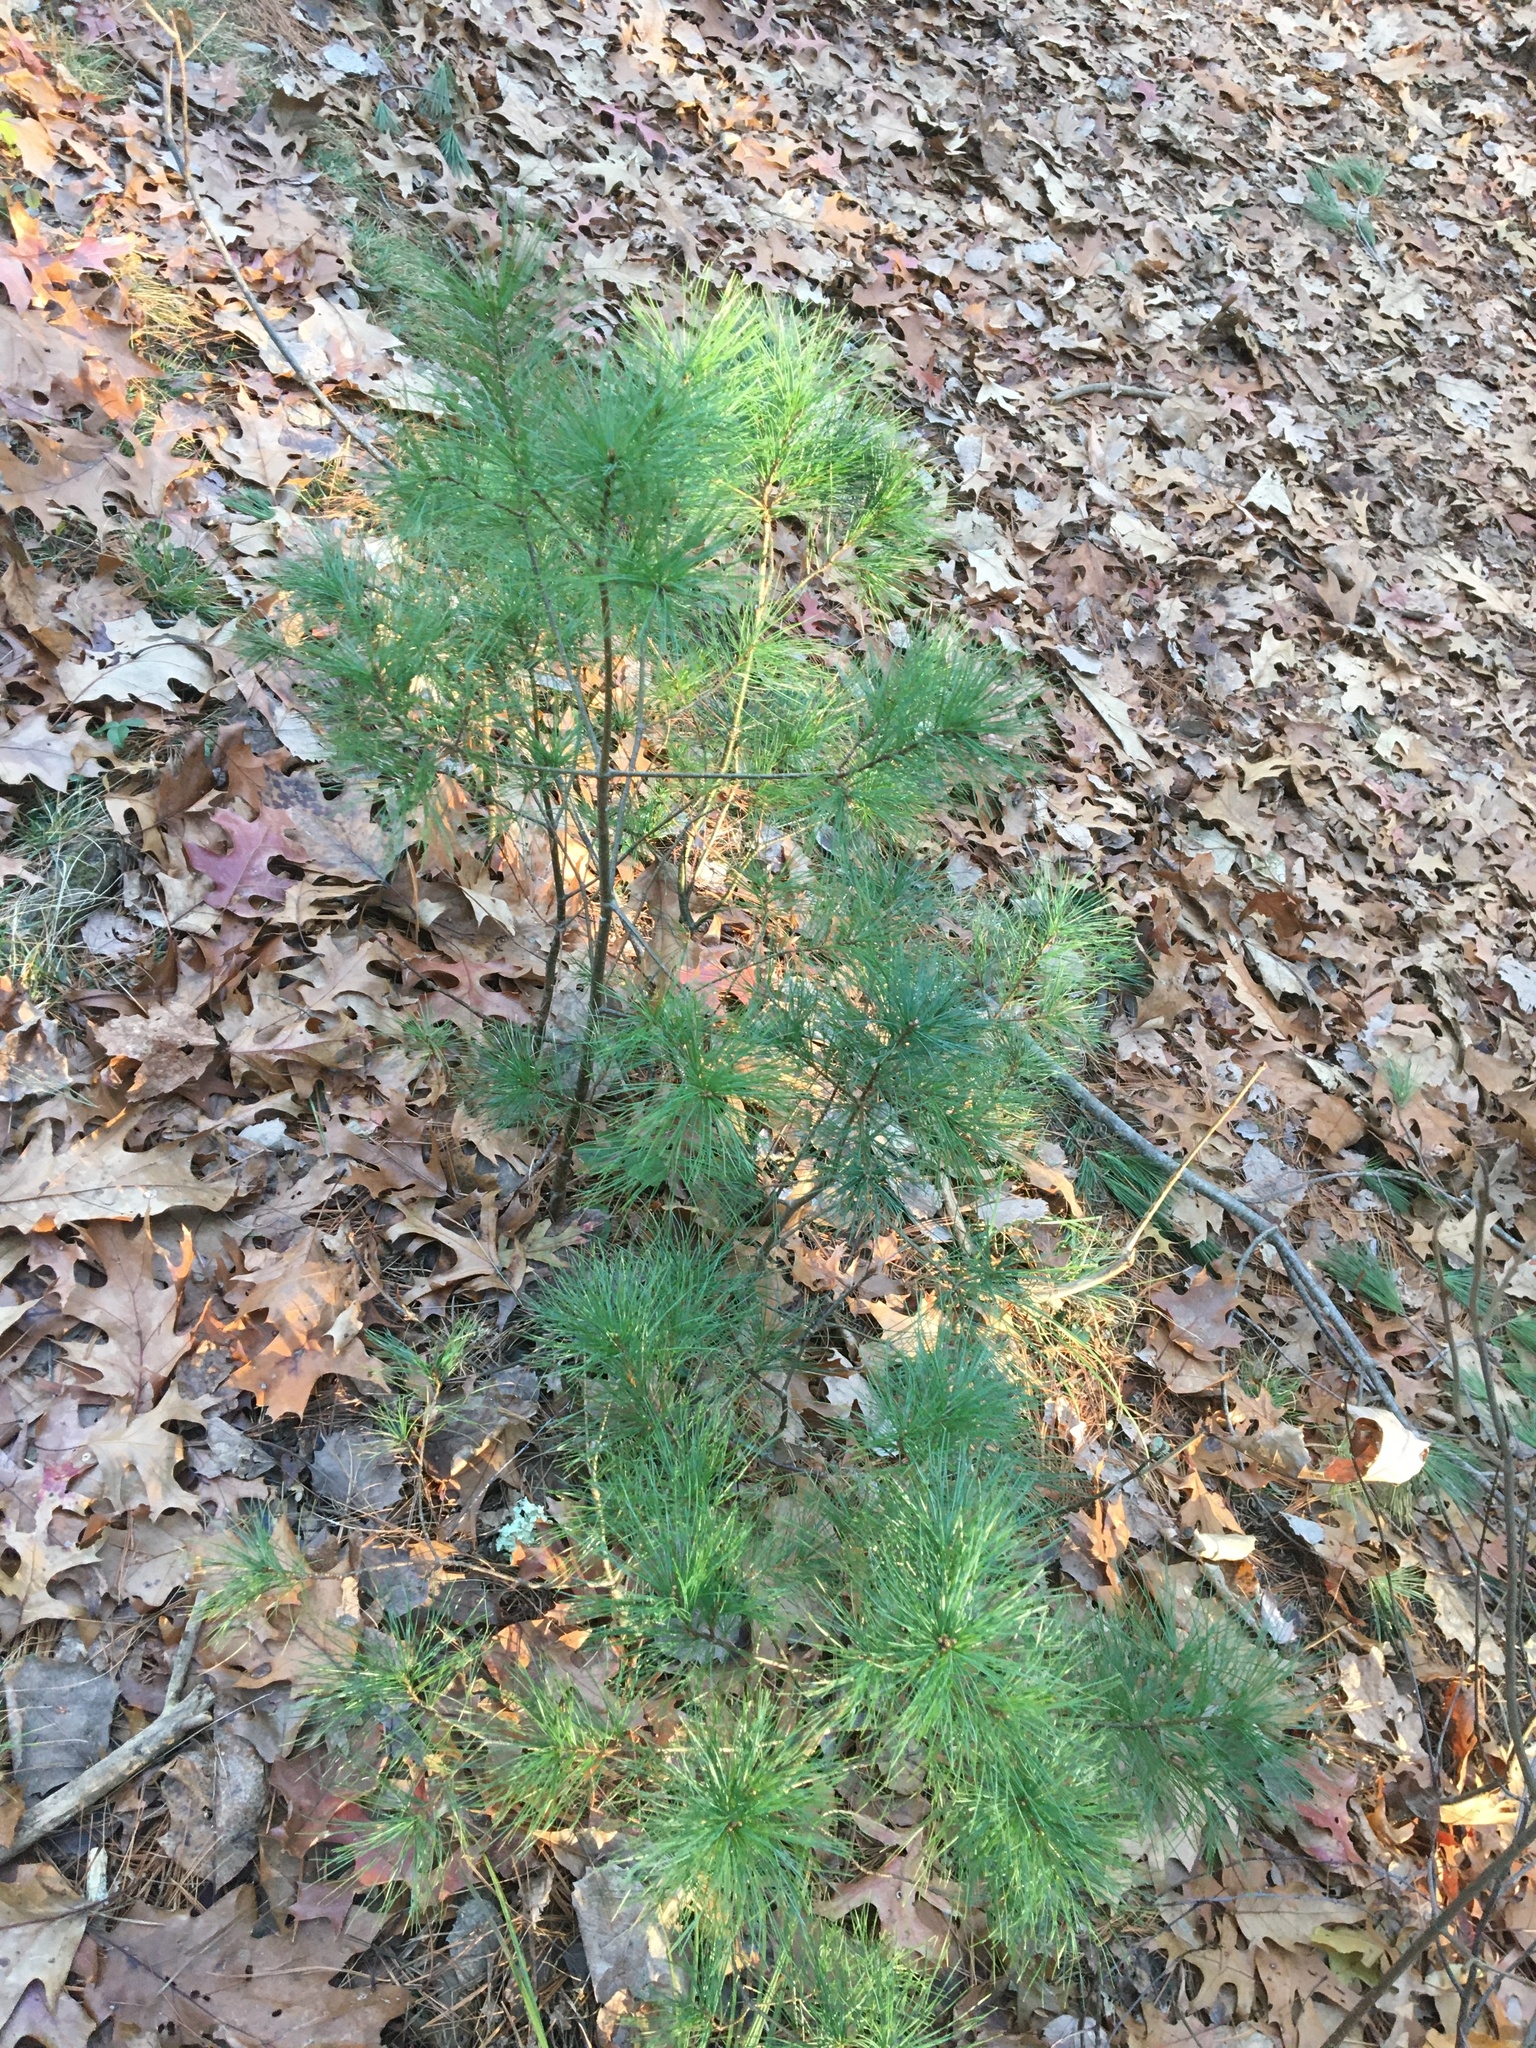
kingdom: Plantae
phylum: Tracheophyta
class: Pinopsida
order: Pinales
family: Pinaceae
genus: Pinus
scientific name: Pinus strobus
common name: Weymouth pine
